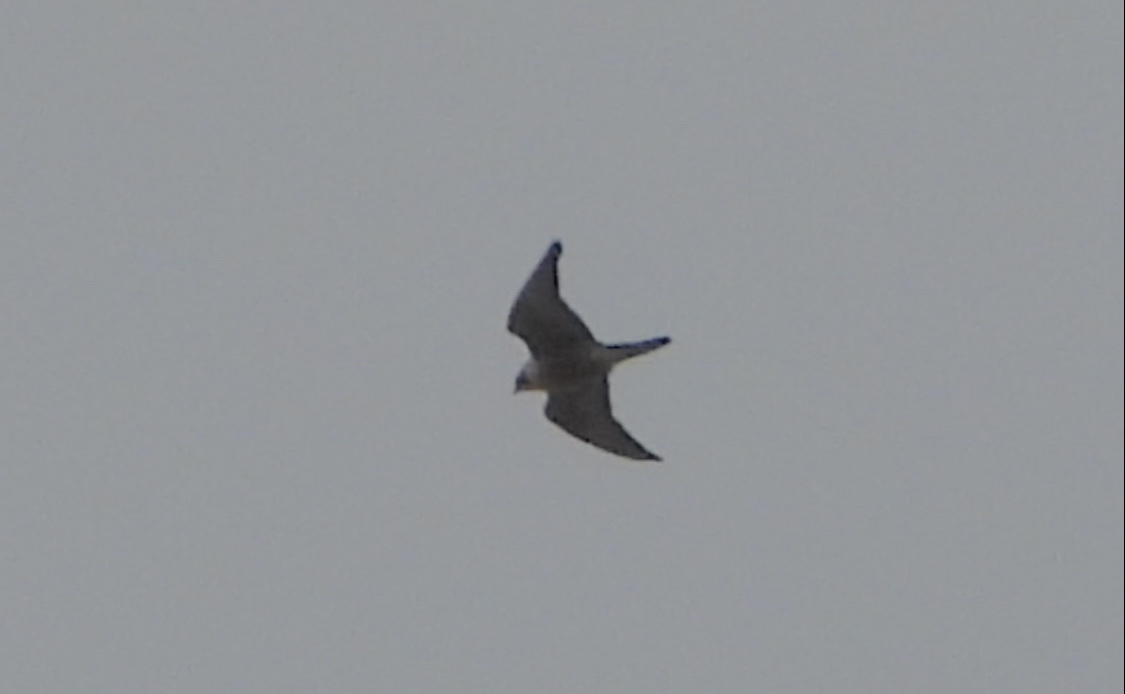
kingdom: Animalia
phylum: Chordata
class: Aves
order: Falconiformes
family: Falconidae
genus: Falco
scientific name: Falco peregrinus
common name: Peregrine falcon
